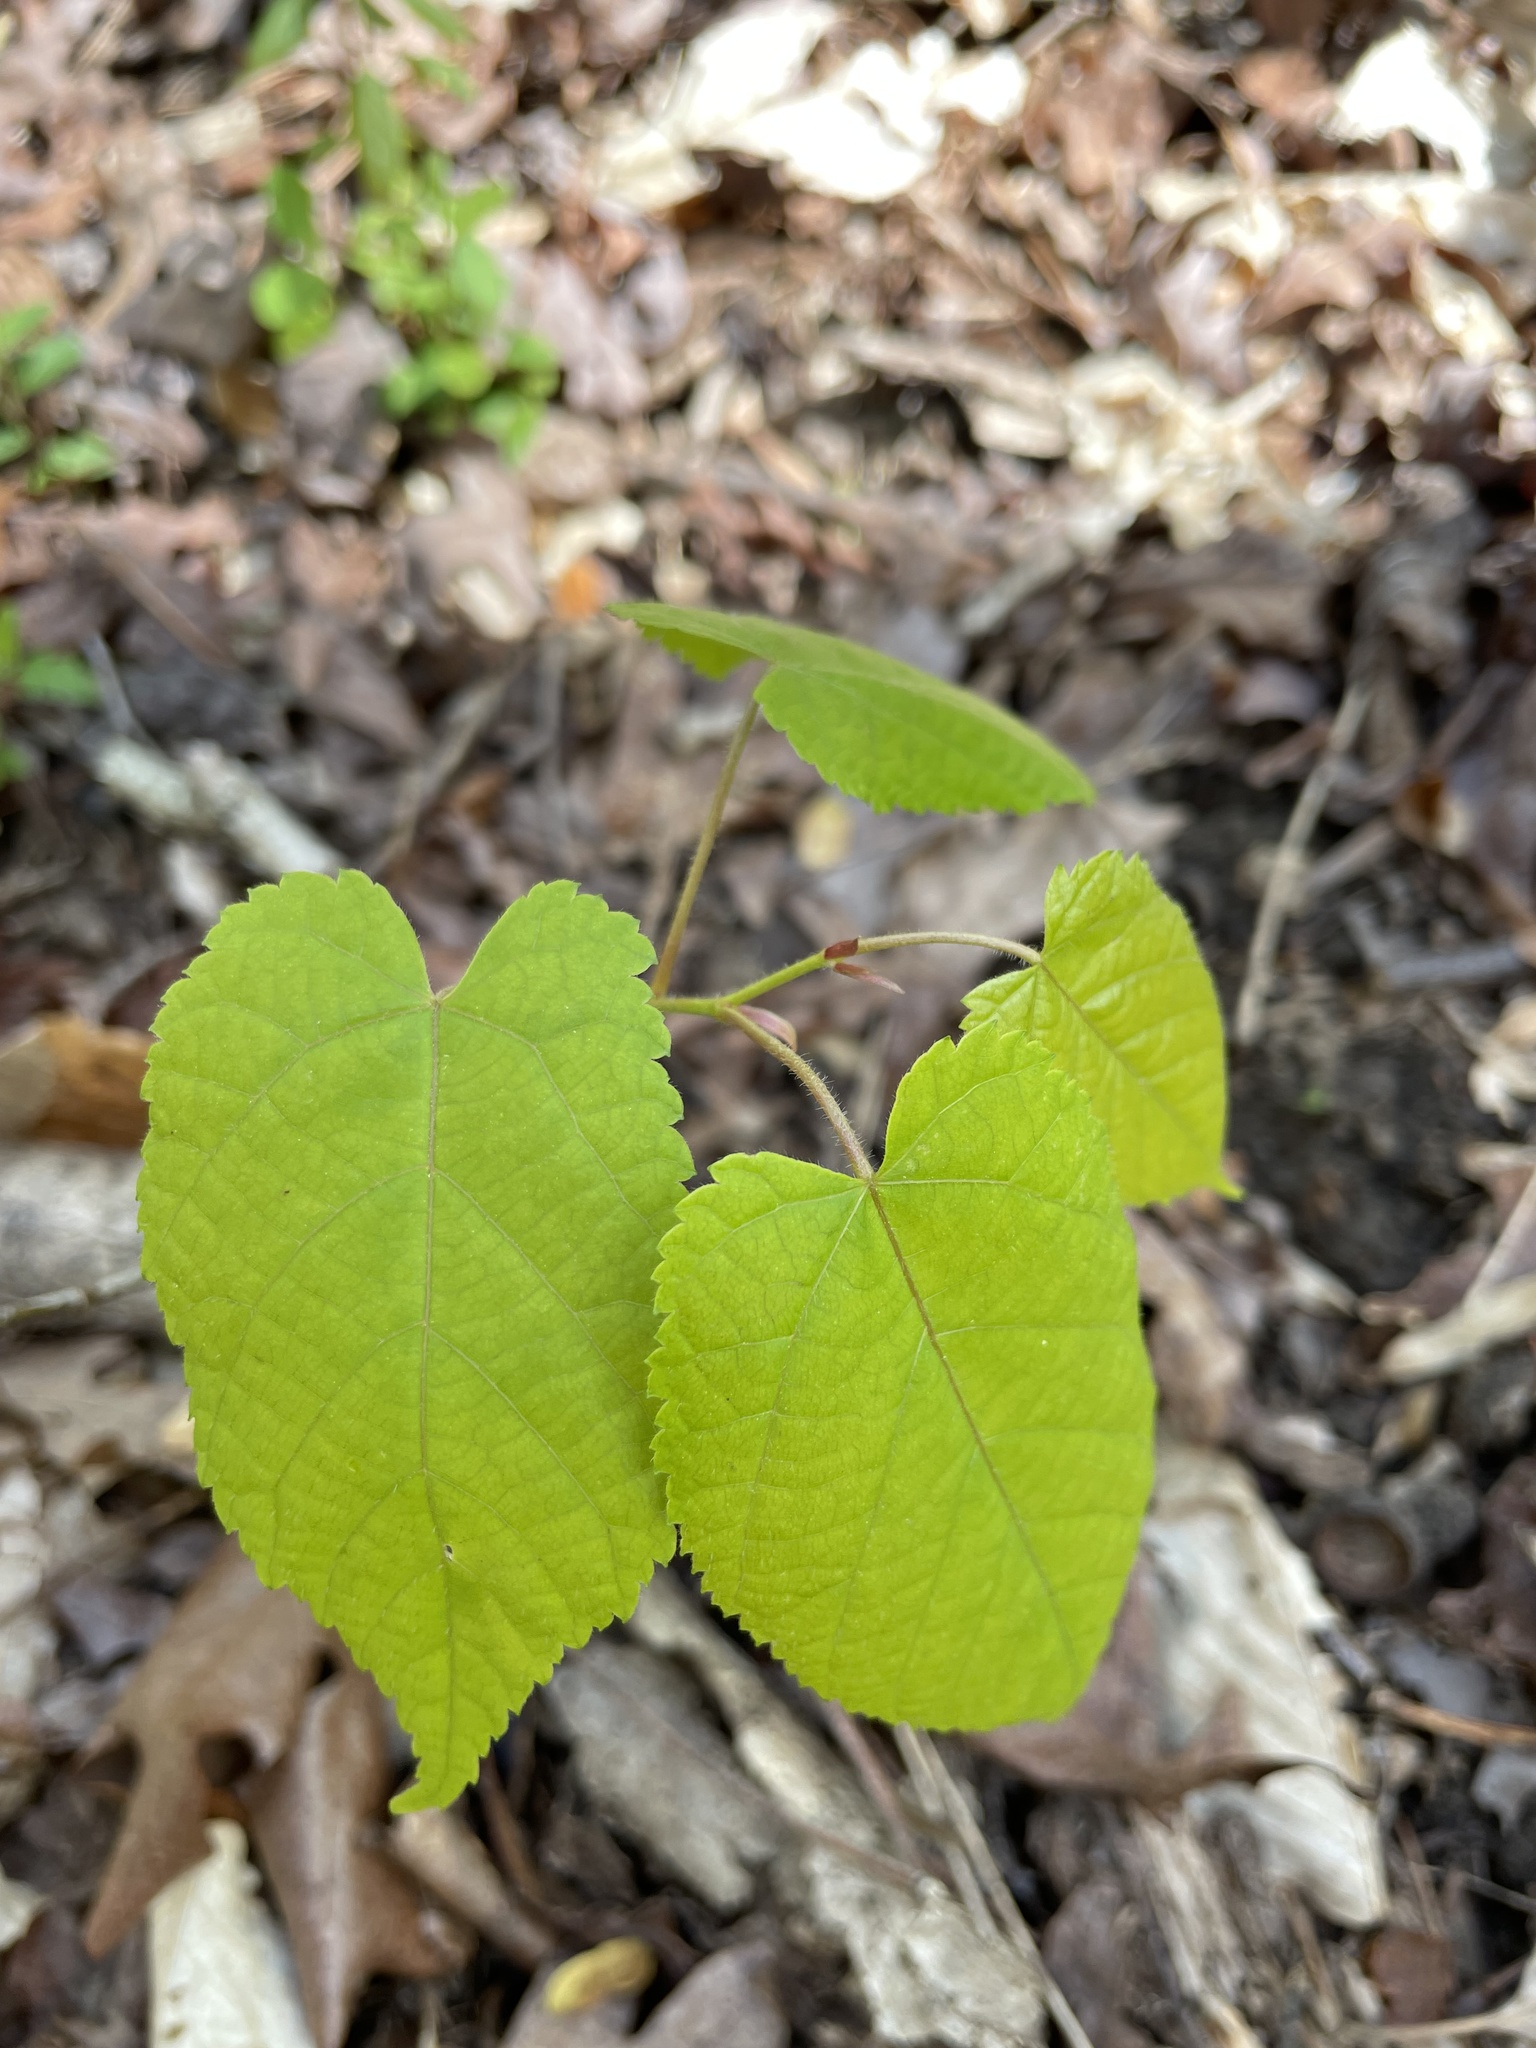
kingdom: Plantae
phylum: Tracheophyta
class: Magnoliopsida
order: Malvales
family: Malvaceae
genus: Tilia
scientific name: Tilia americana
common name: Basswood
